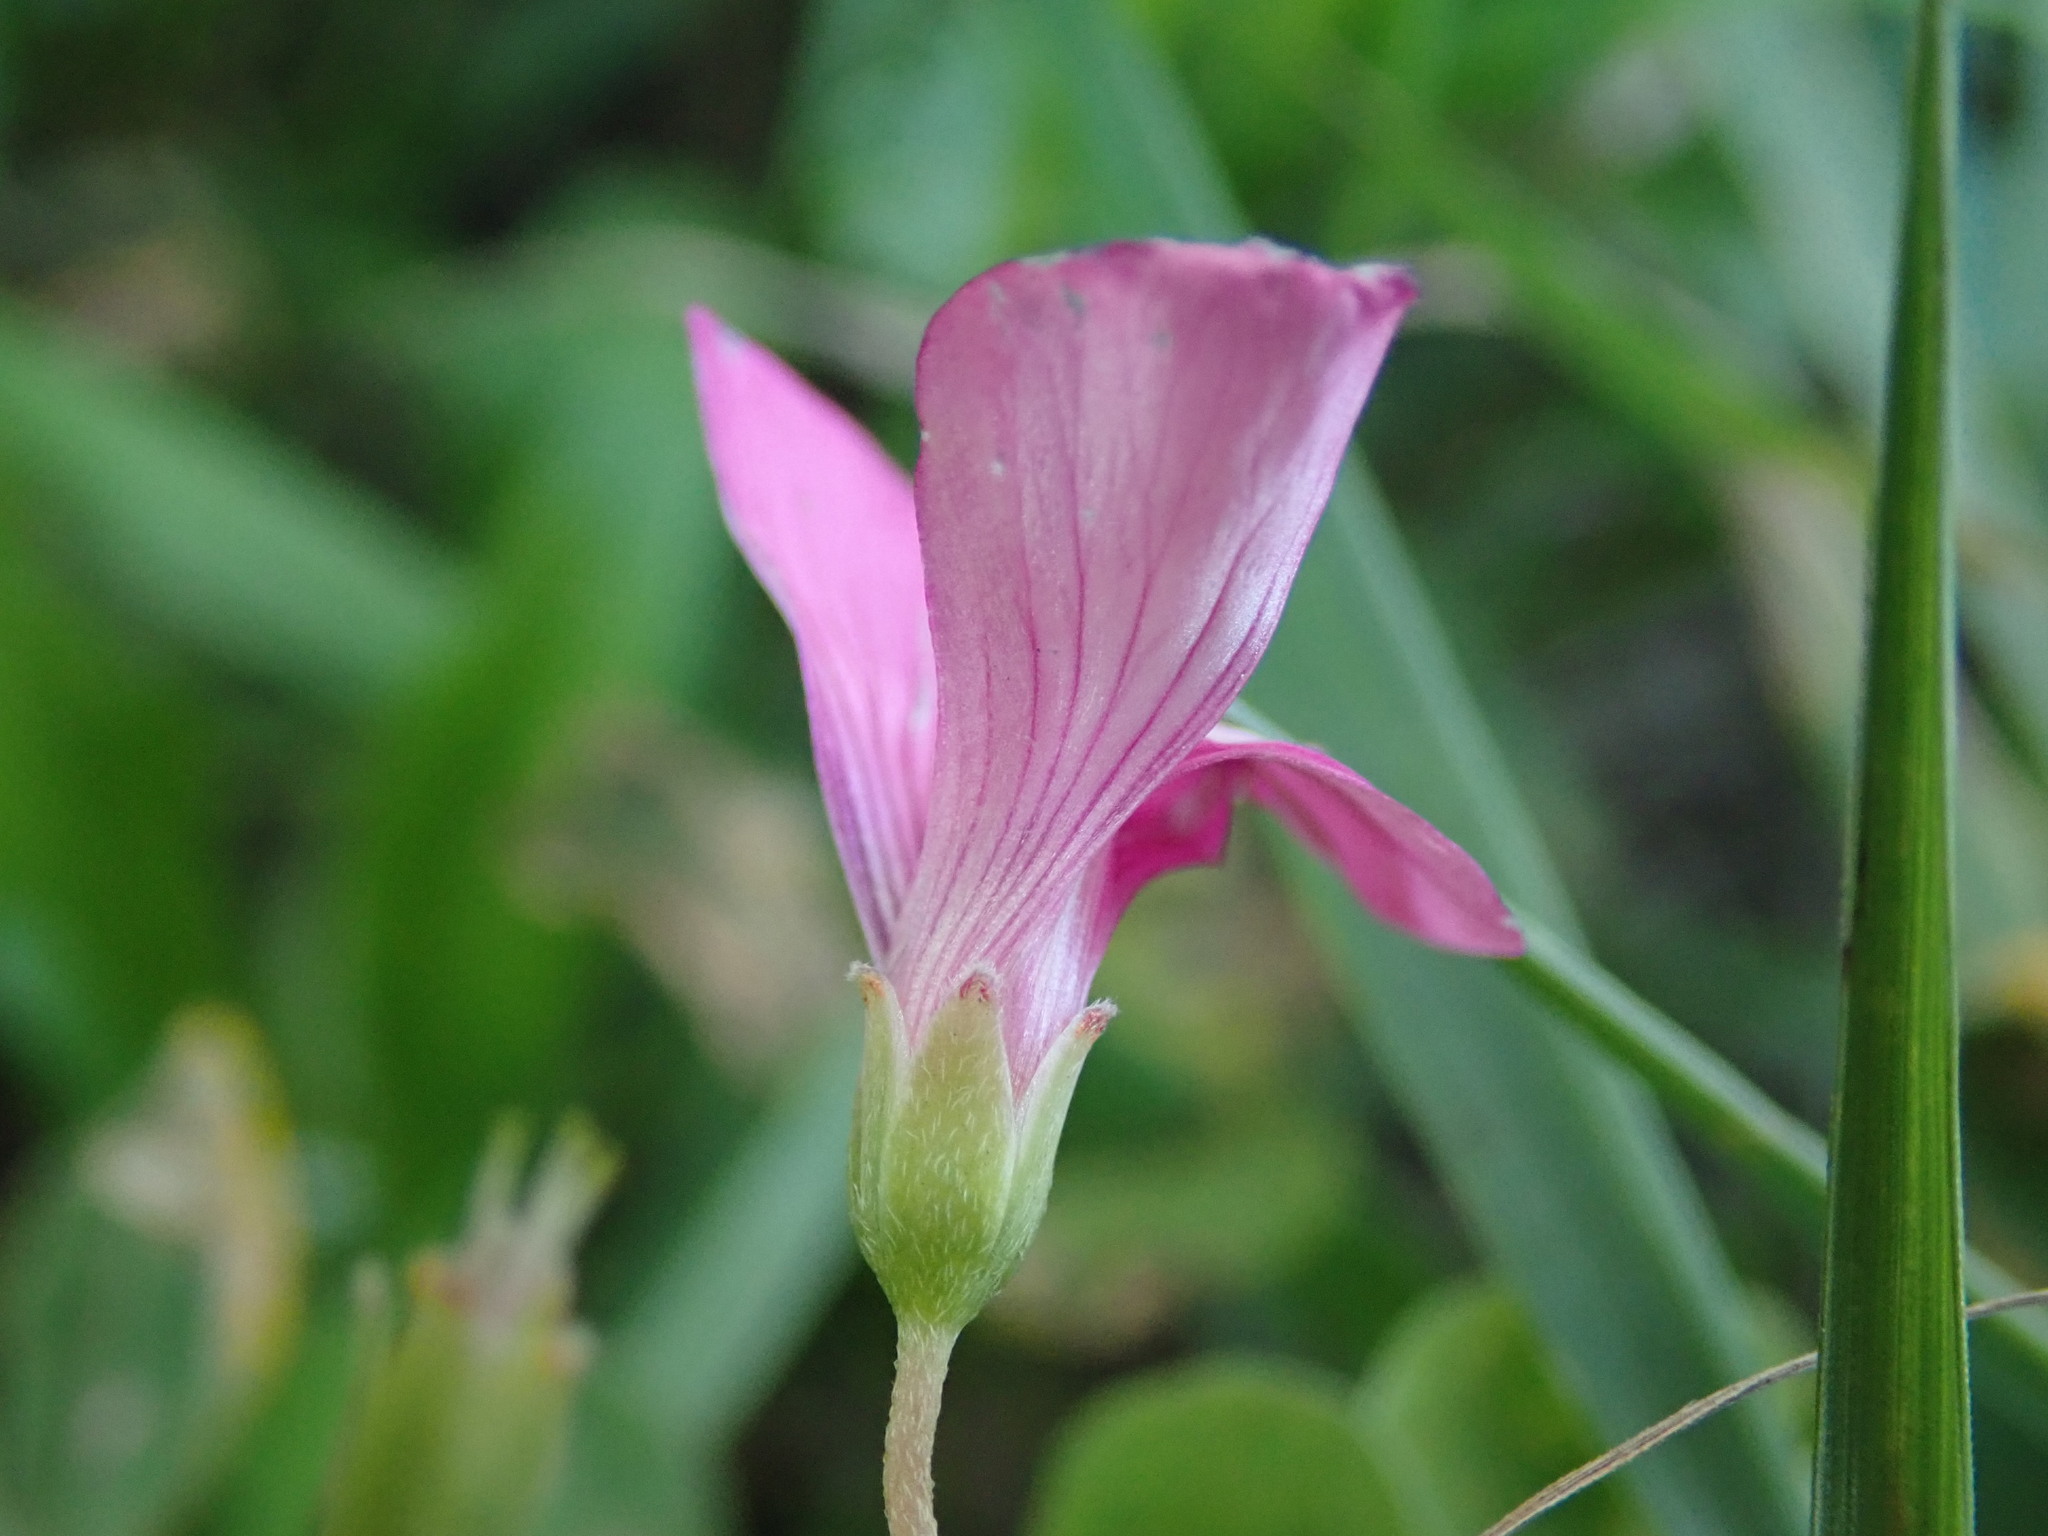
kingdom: Plantae
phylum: Tracheophyta
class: Magnoliopsida
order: Oxalidales
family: Oxalidaceae
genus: Oxalis
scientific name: Oxalis articulata
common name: Pink-sorrel
